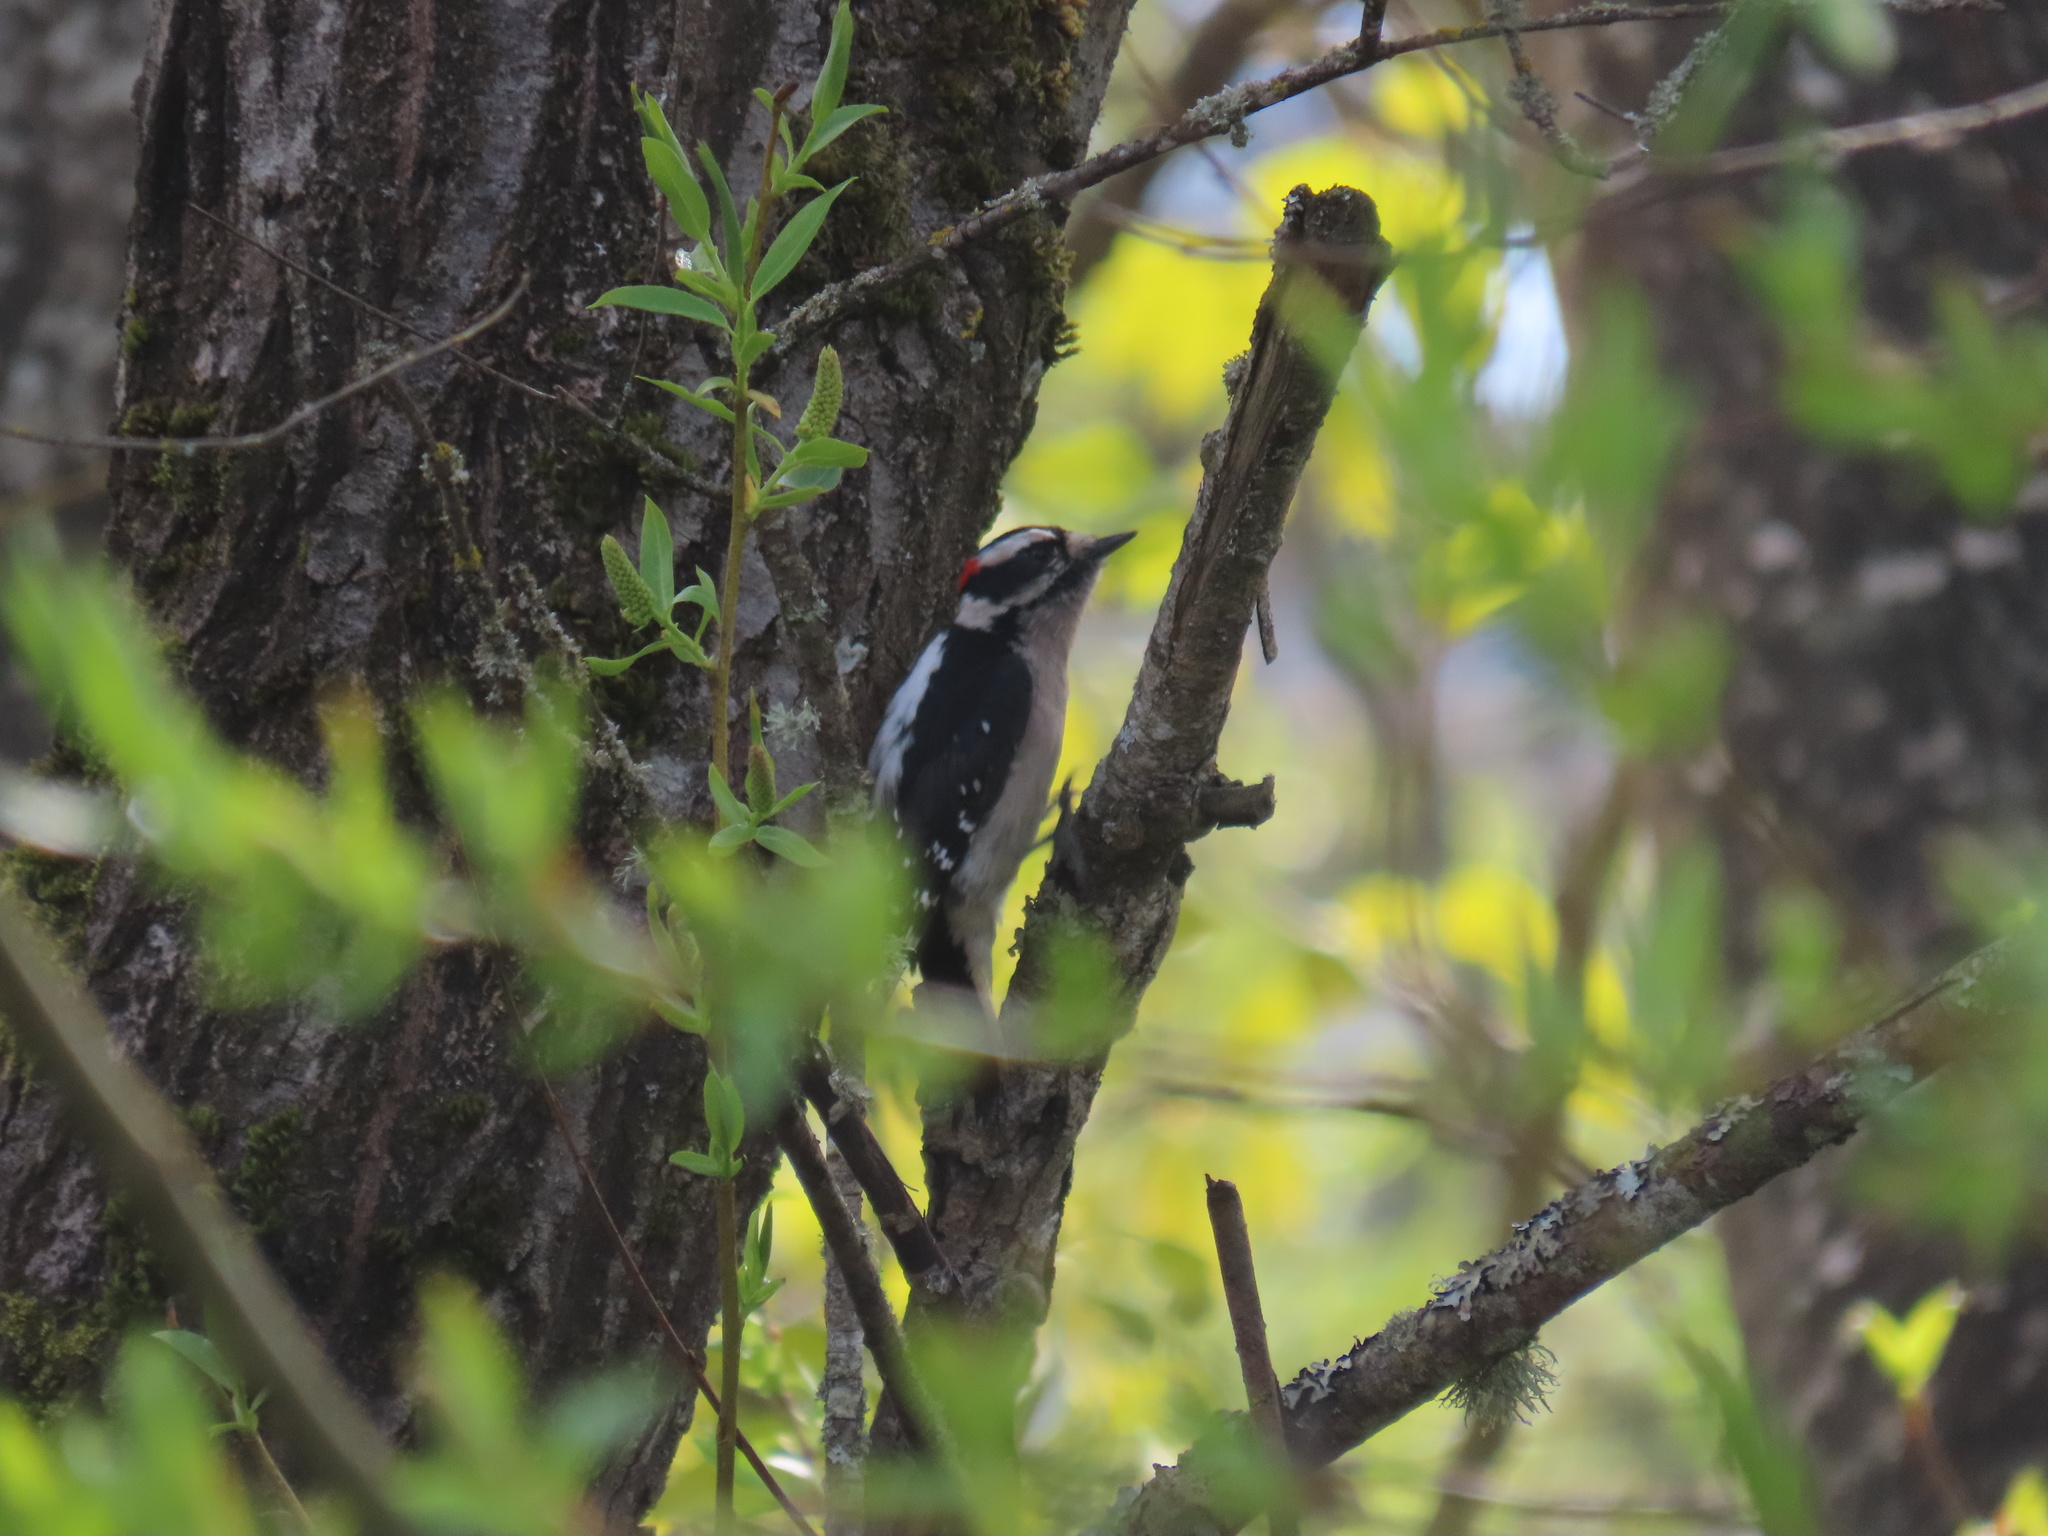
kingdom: Animalia
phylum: Chordata
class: Aves
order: Piciformes
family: Picidae
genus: Dryobates
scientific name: Dryobates pubescens
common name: Downy woodpecker
